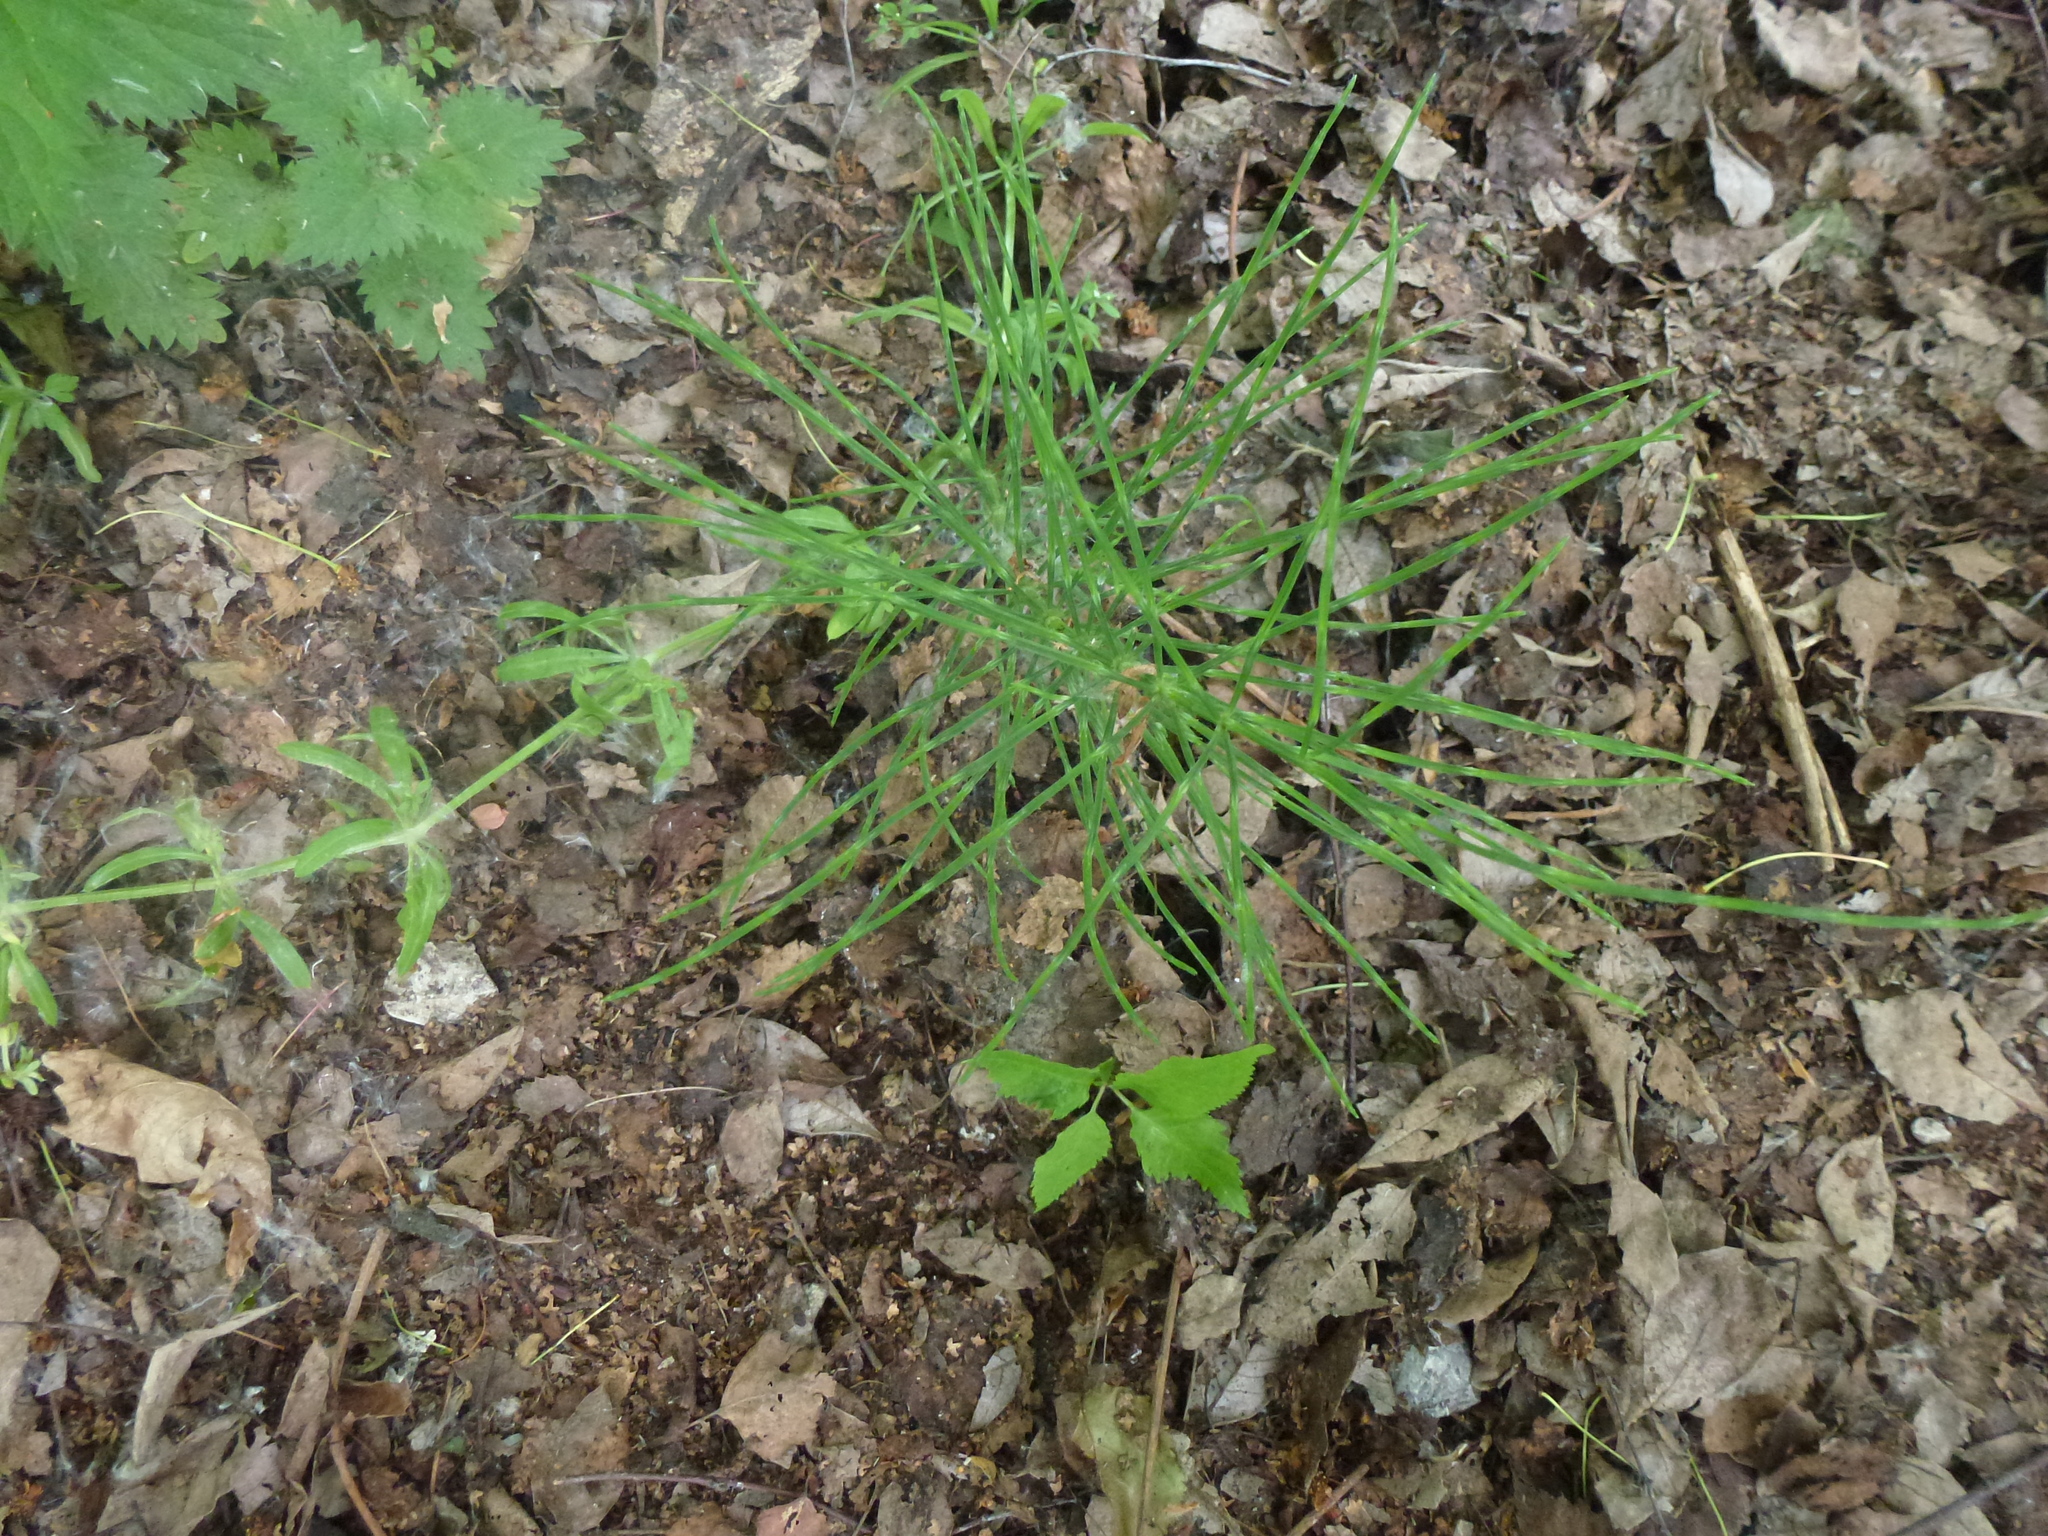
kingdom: Plantae
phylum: Tracheophyta
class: Polypodiopsida
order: Equisetales
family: Equisetaceae
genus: Equisetum
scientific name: Equisetum arvense
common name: Field horsetail
